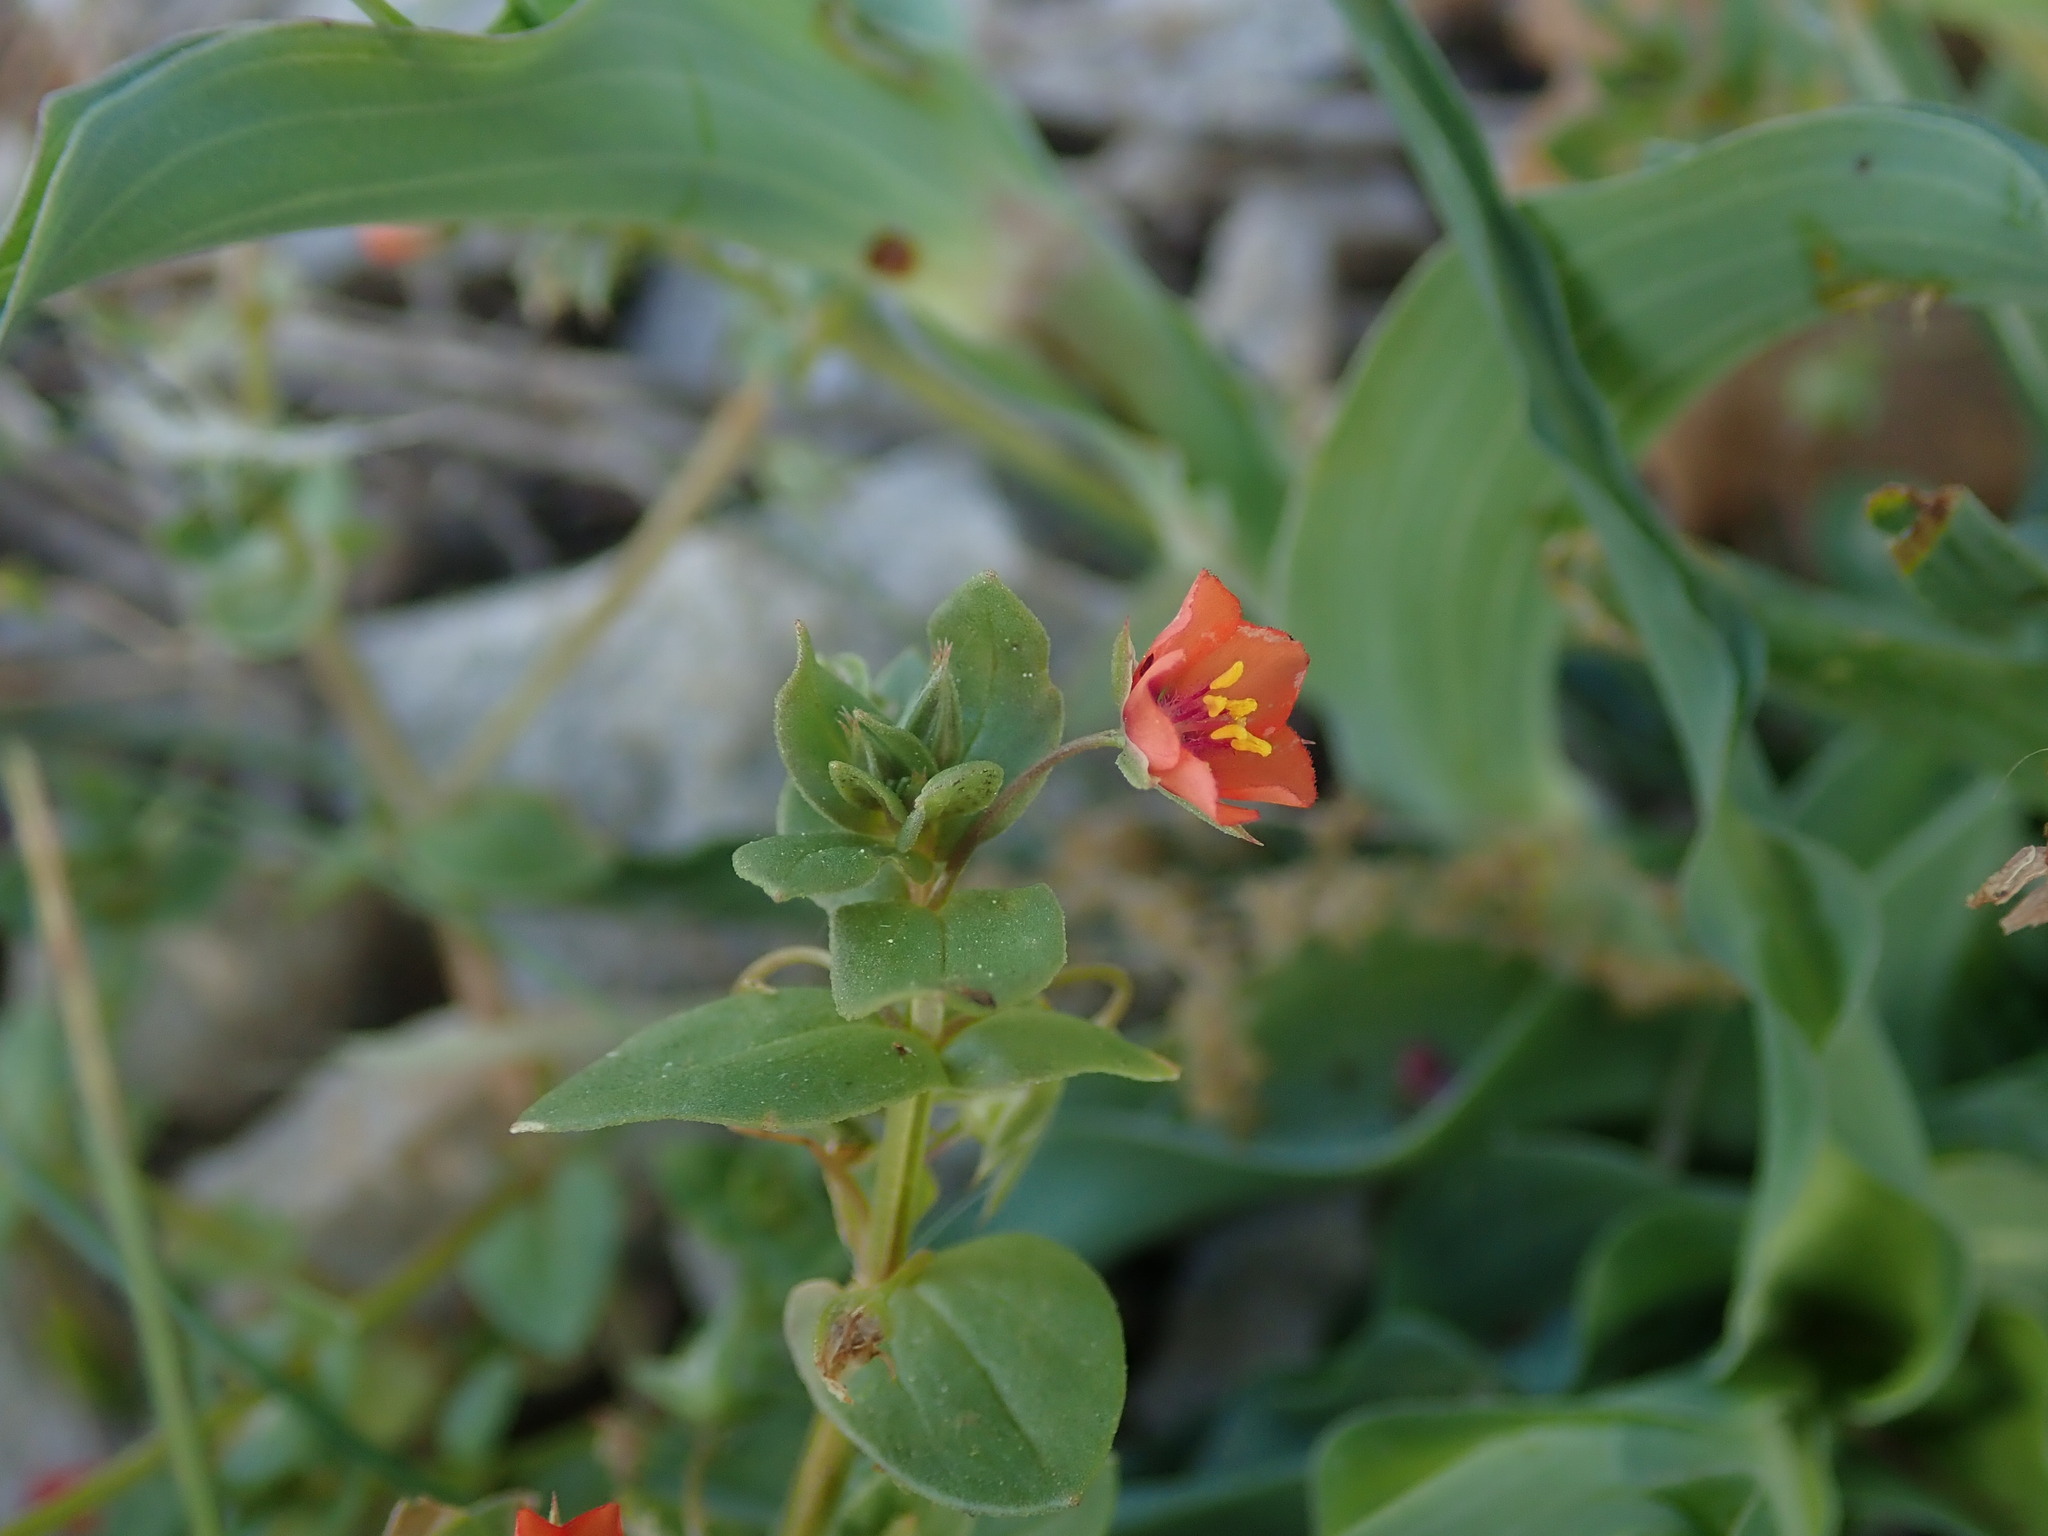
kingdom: Plantae
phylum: Tracheophyta
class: Magnoliopsida
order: Ericales
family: Primulaceae
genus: Lysimachia
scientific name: Lysimachia arvensis
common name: Scarlet pimpernel
